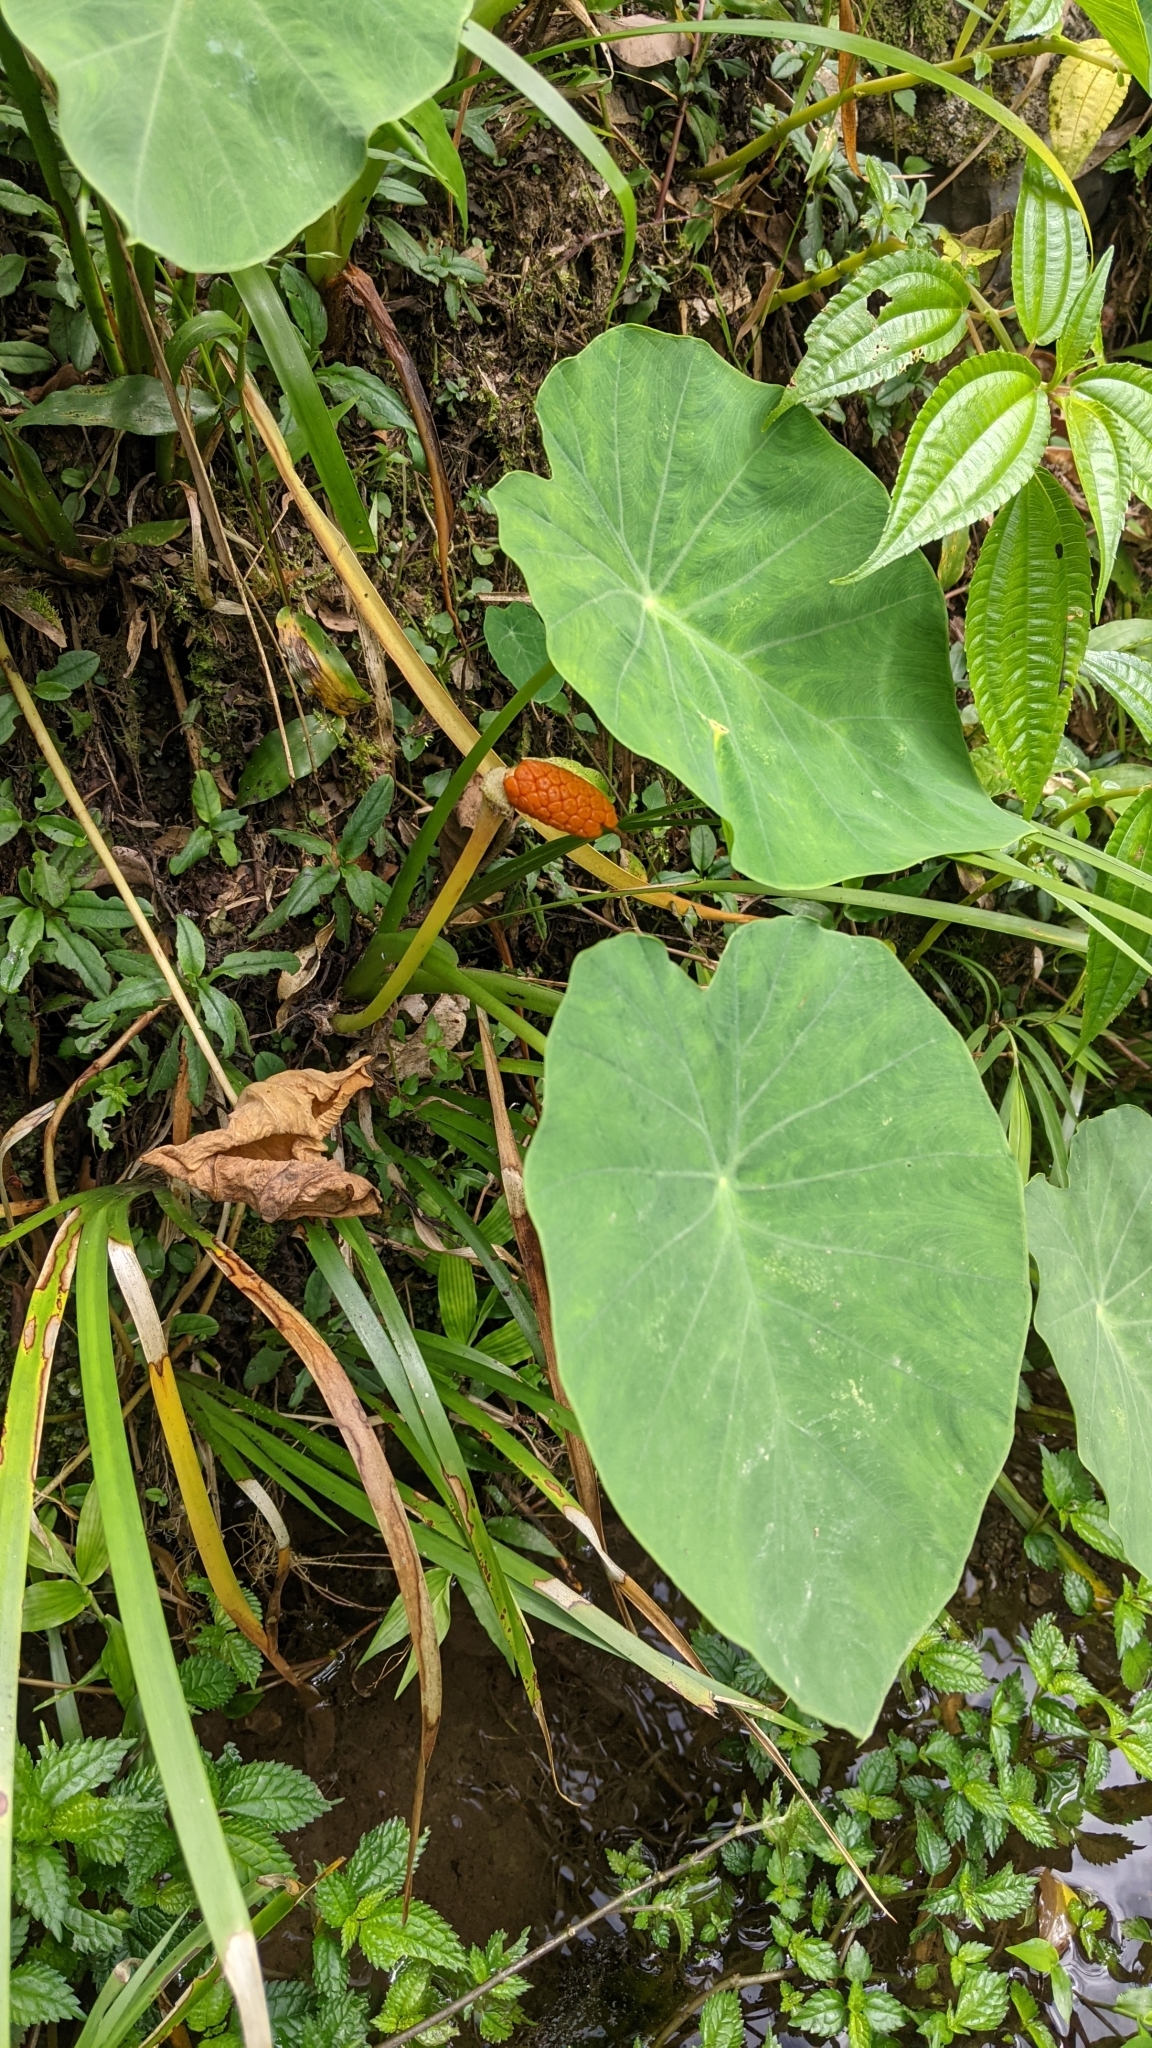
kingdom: Plantae
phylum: Tracheophyta
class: Liliopsida
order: Alismatales
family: Araceae
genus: Colocasia
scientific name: Colocasia esculenta
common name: Taro
